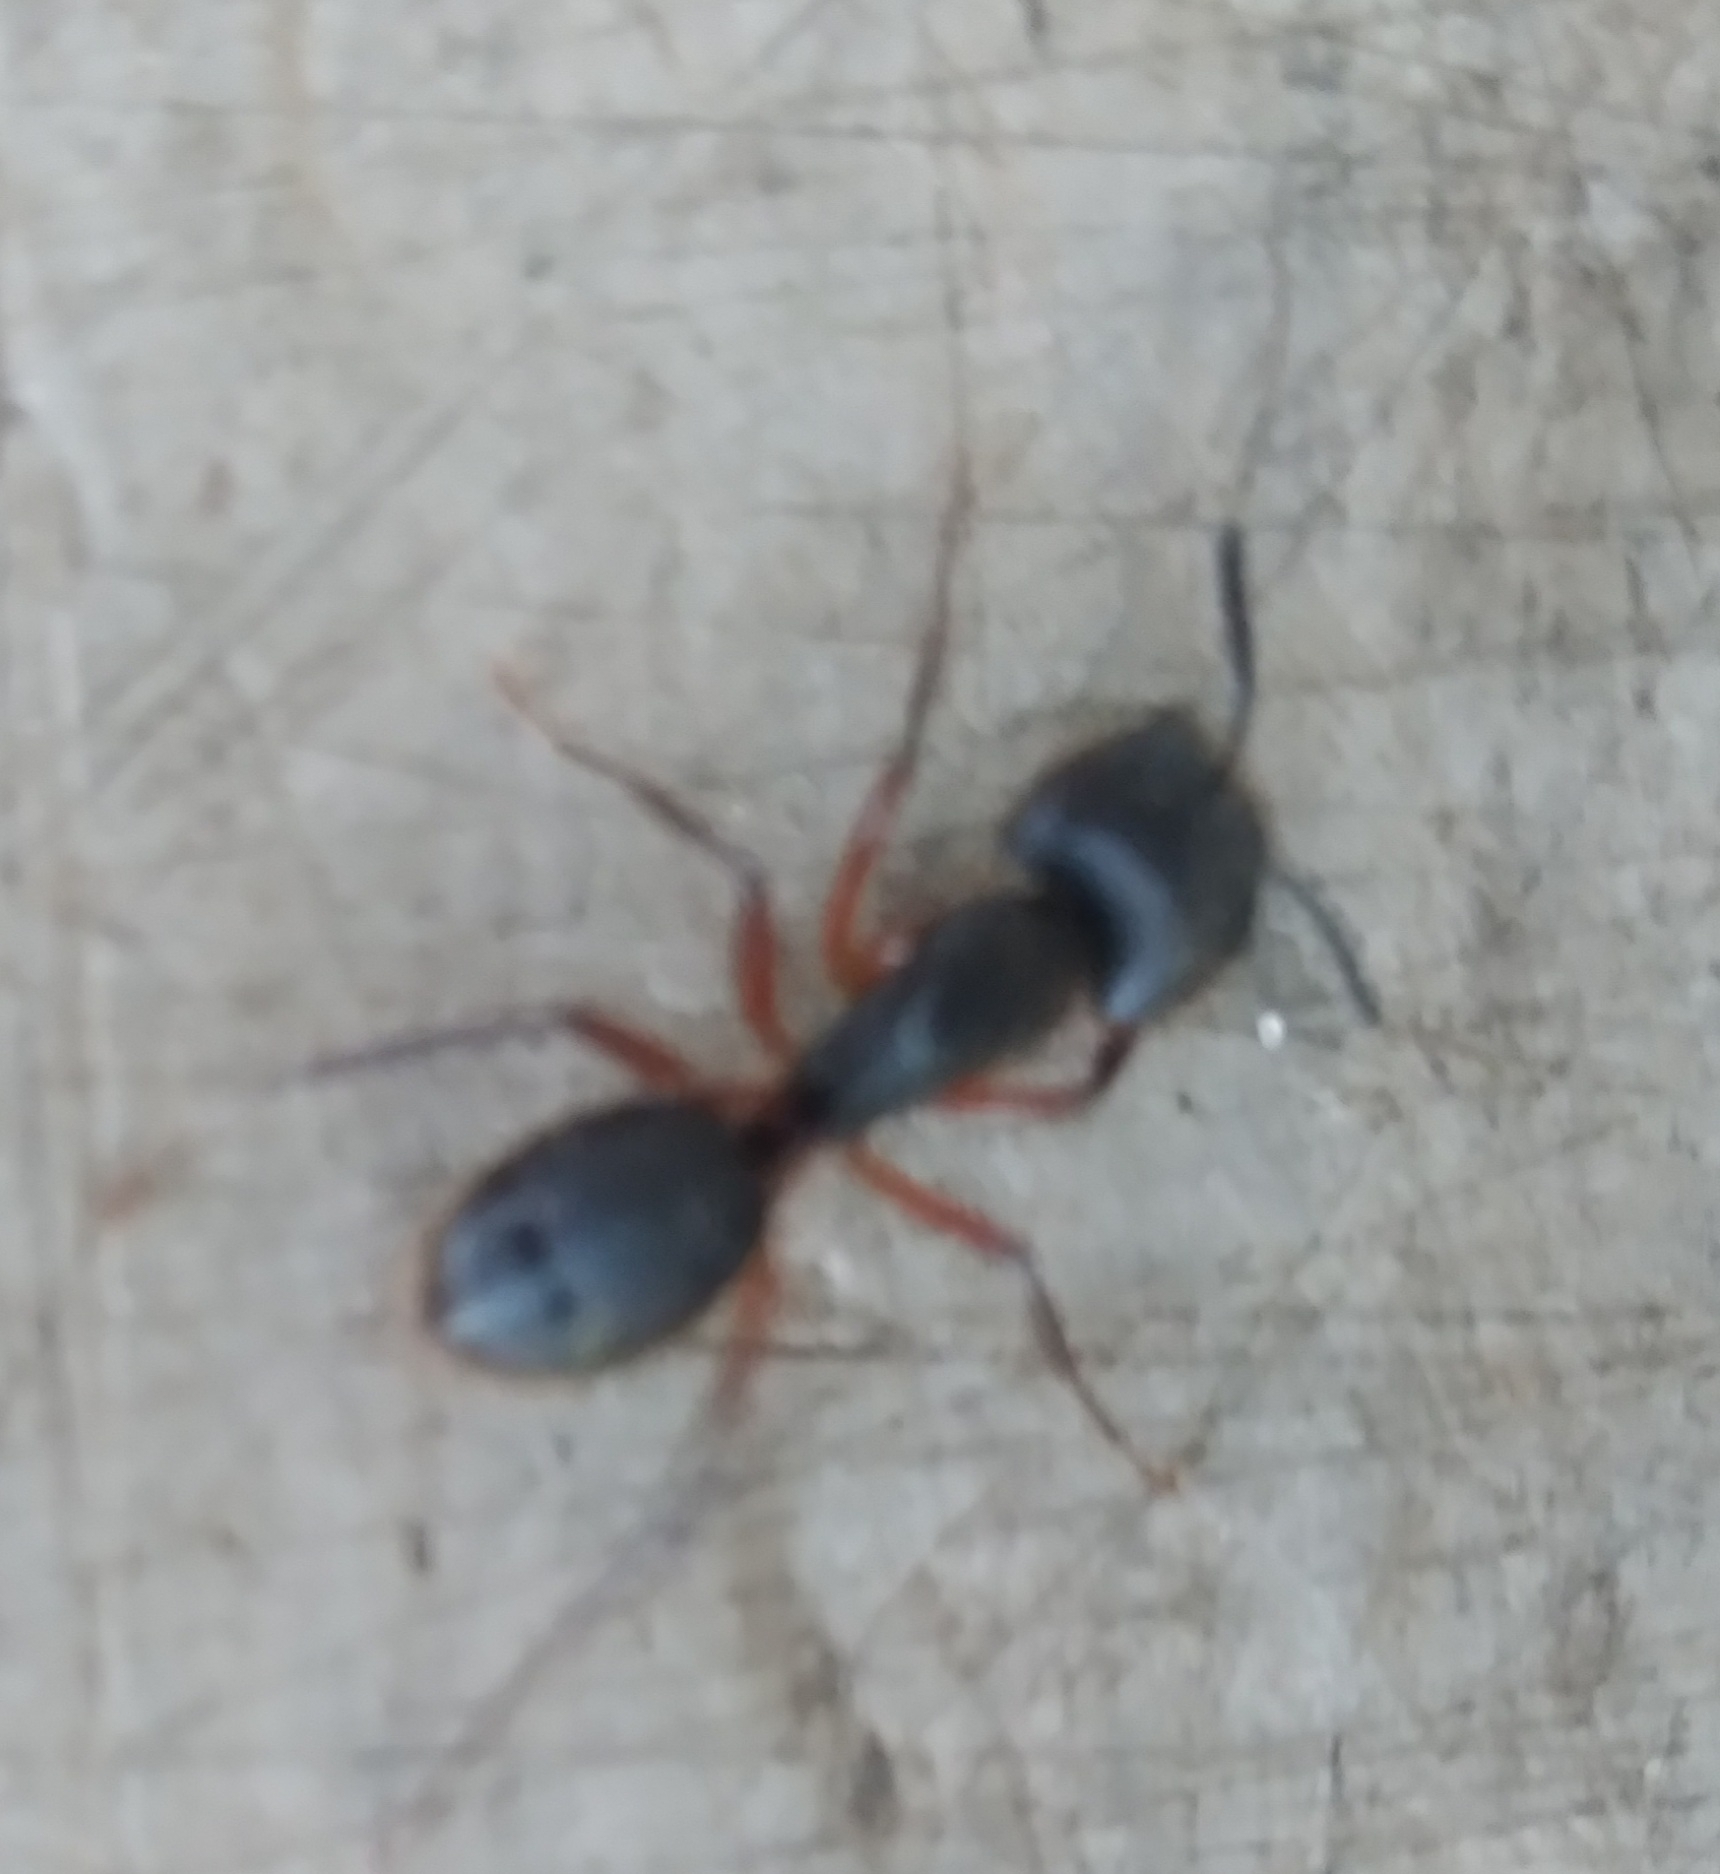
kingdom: Animalia
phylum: Arthropoda
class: Insecta
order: Hymenoptera
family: Formicidae
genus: Camponotus
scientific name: Camponotus rufipes
